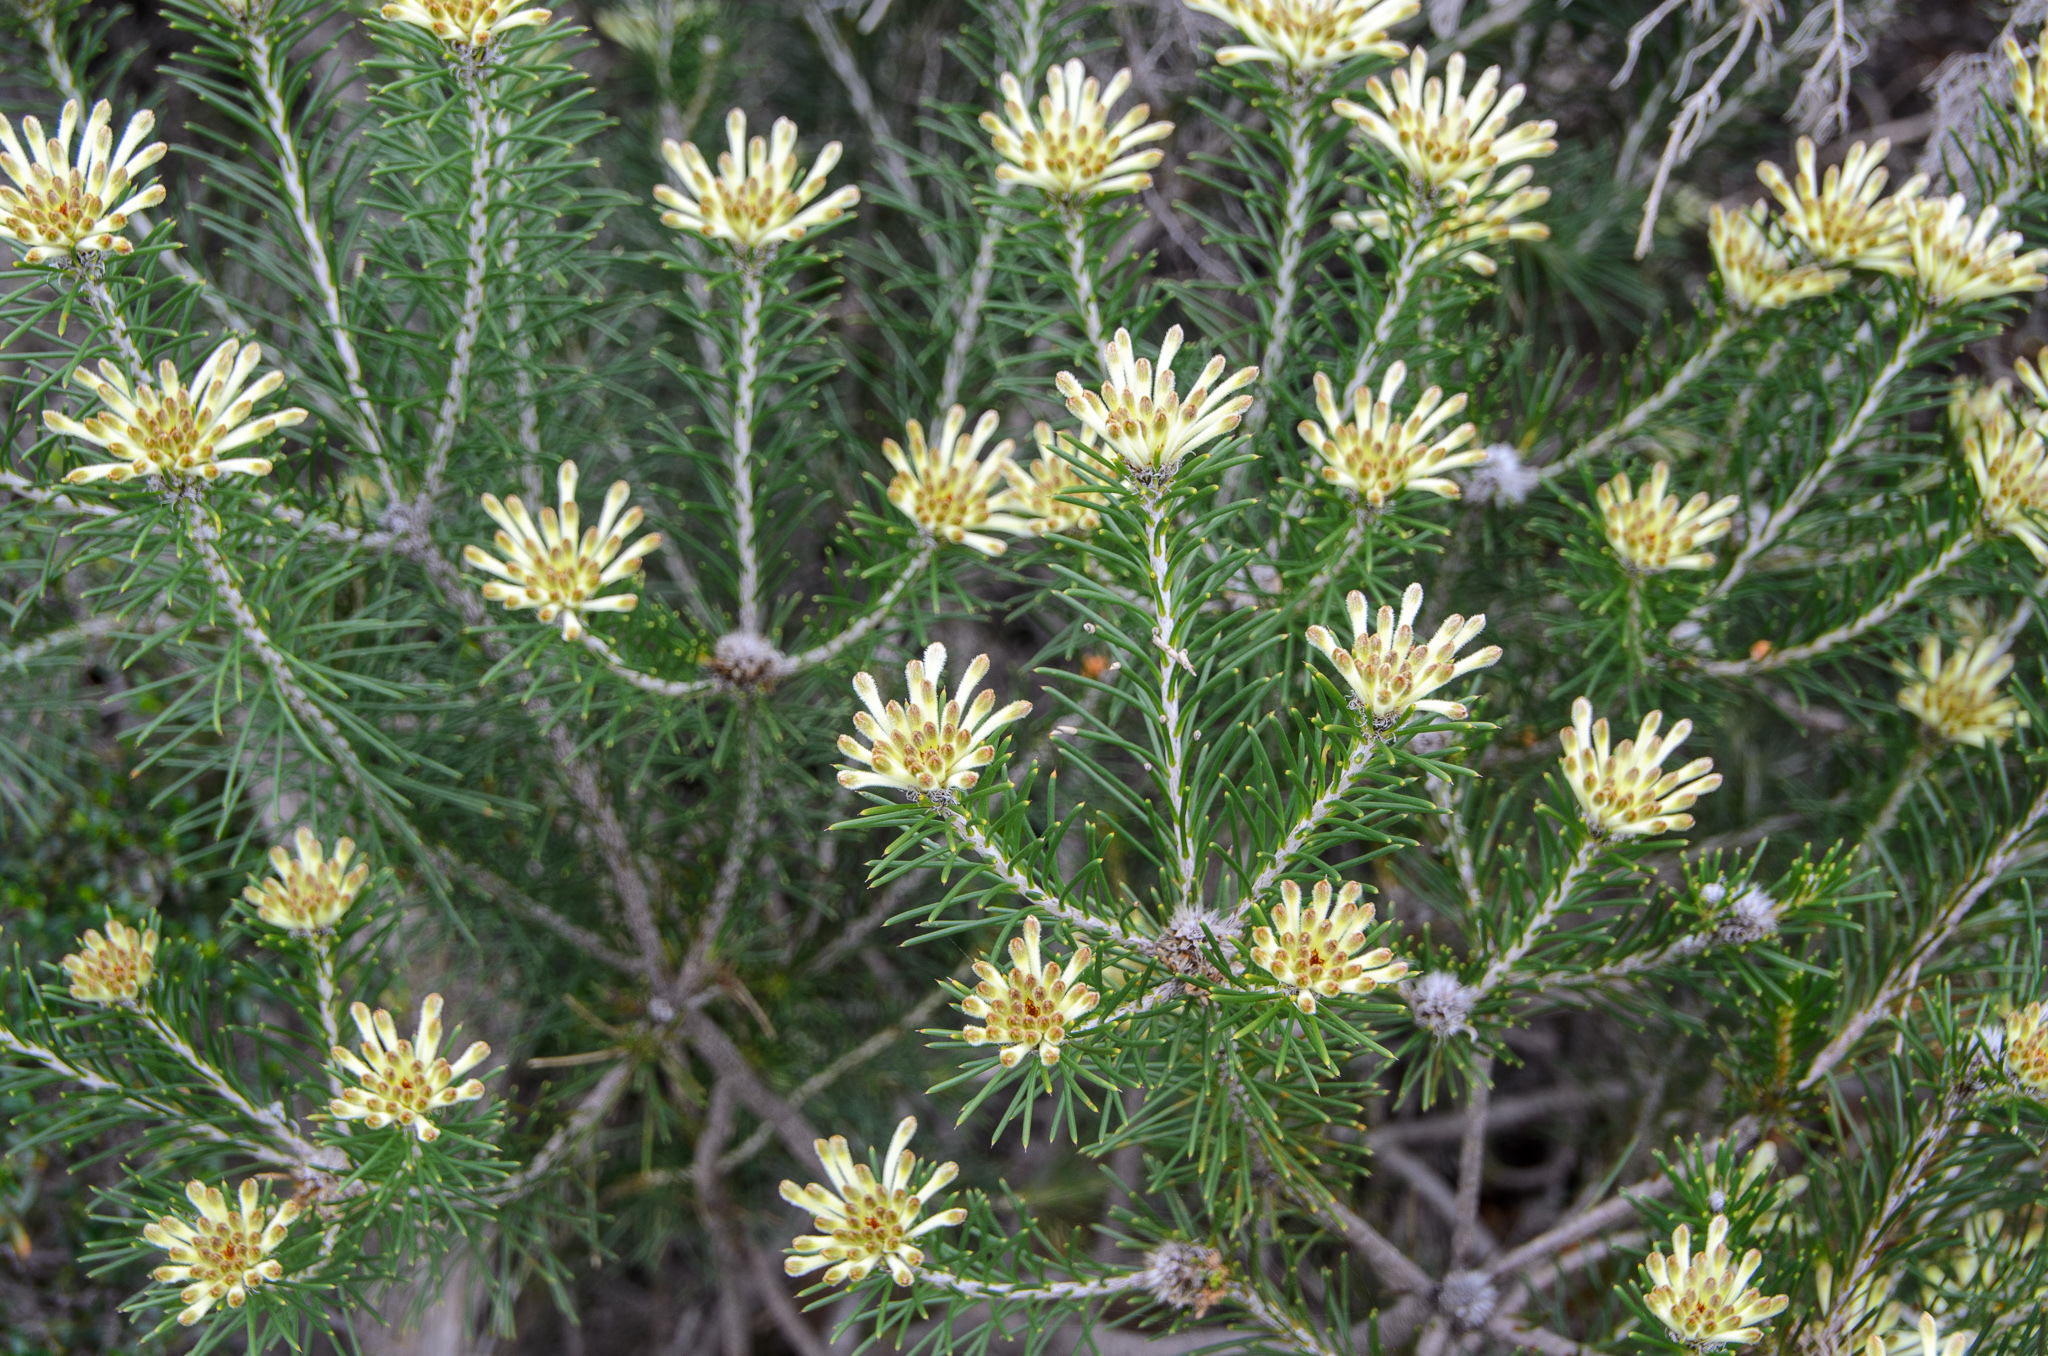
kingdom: Plantae
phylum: Tracheophyta
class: Magnoliopsida
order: Proteales
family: Proteaceae
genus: Petrophile
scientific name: Petrophile brevifolia
